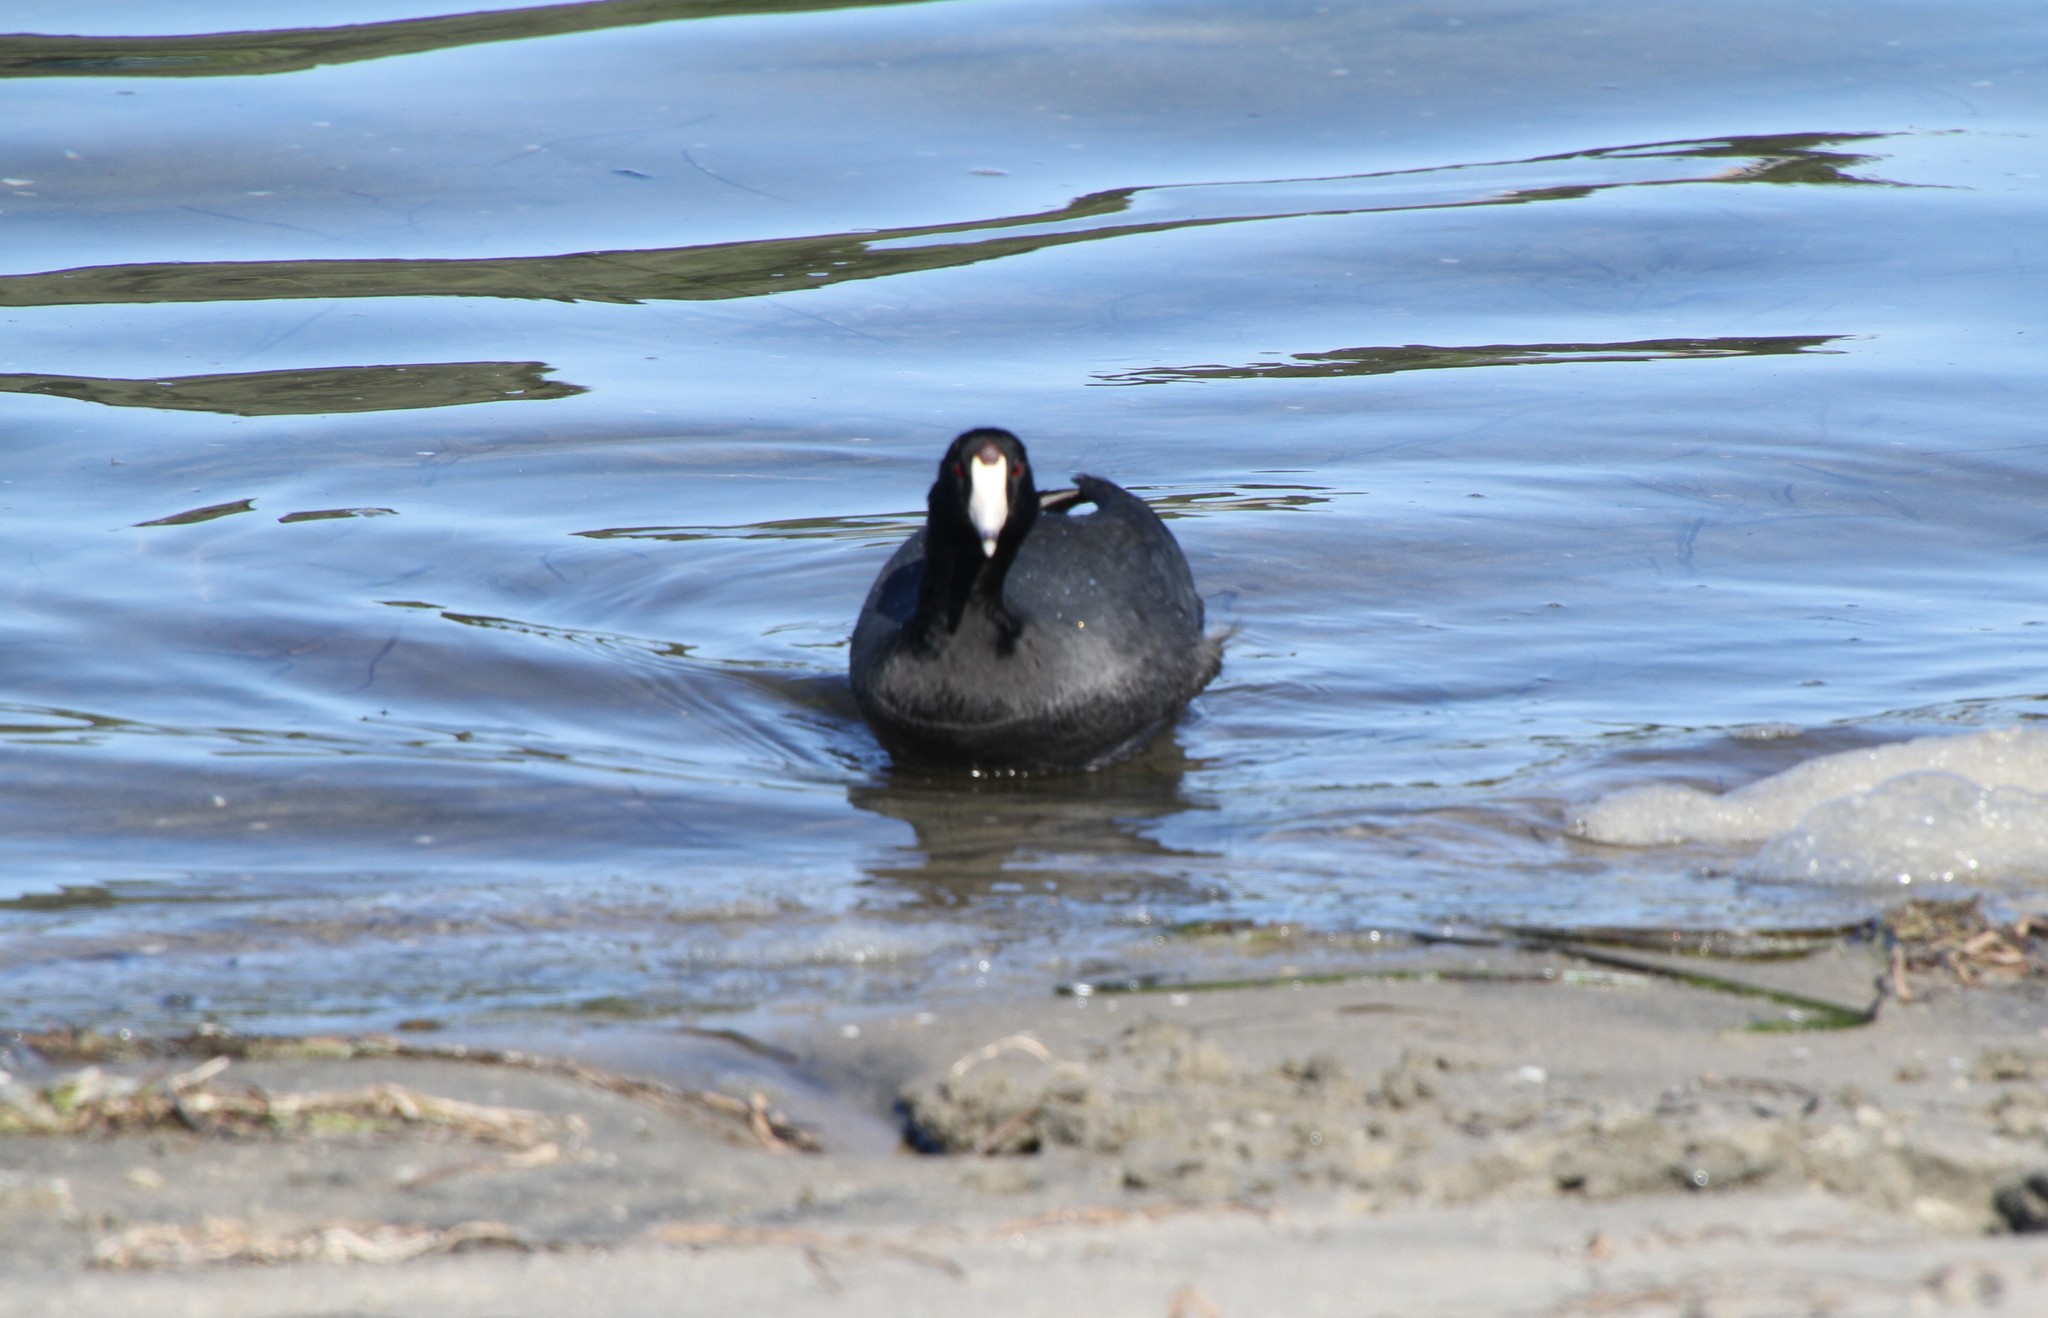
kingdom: Animalia
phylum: Chordata
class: Aves
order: Gruiformes
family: Rallidae
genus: Fulica
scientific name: Fulica americana
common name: American coot
